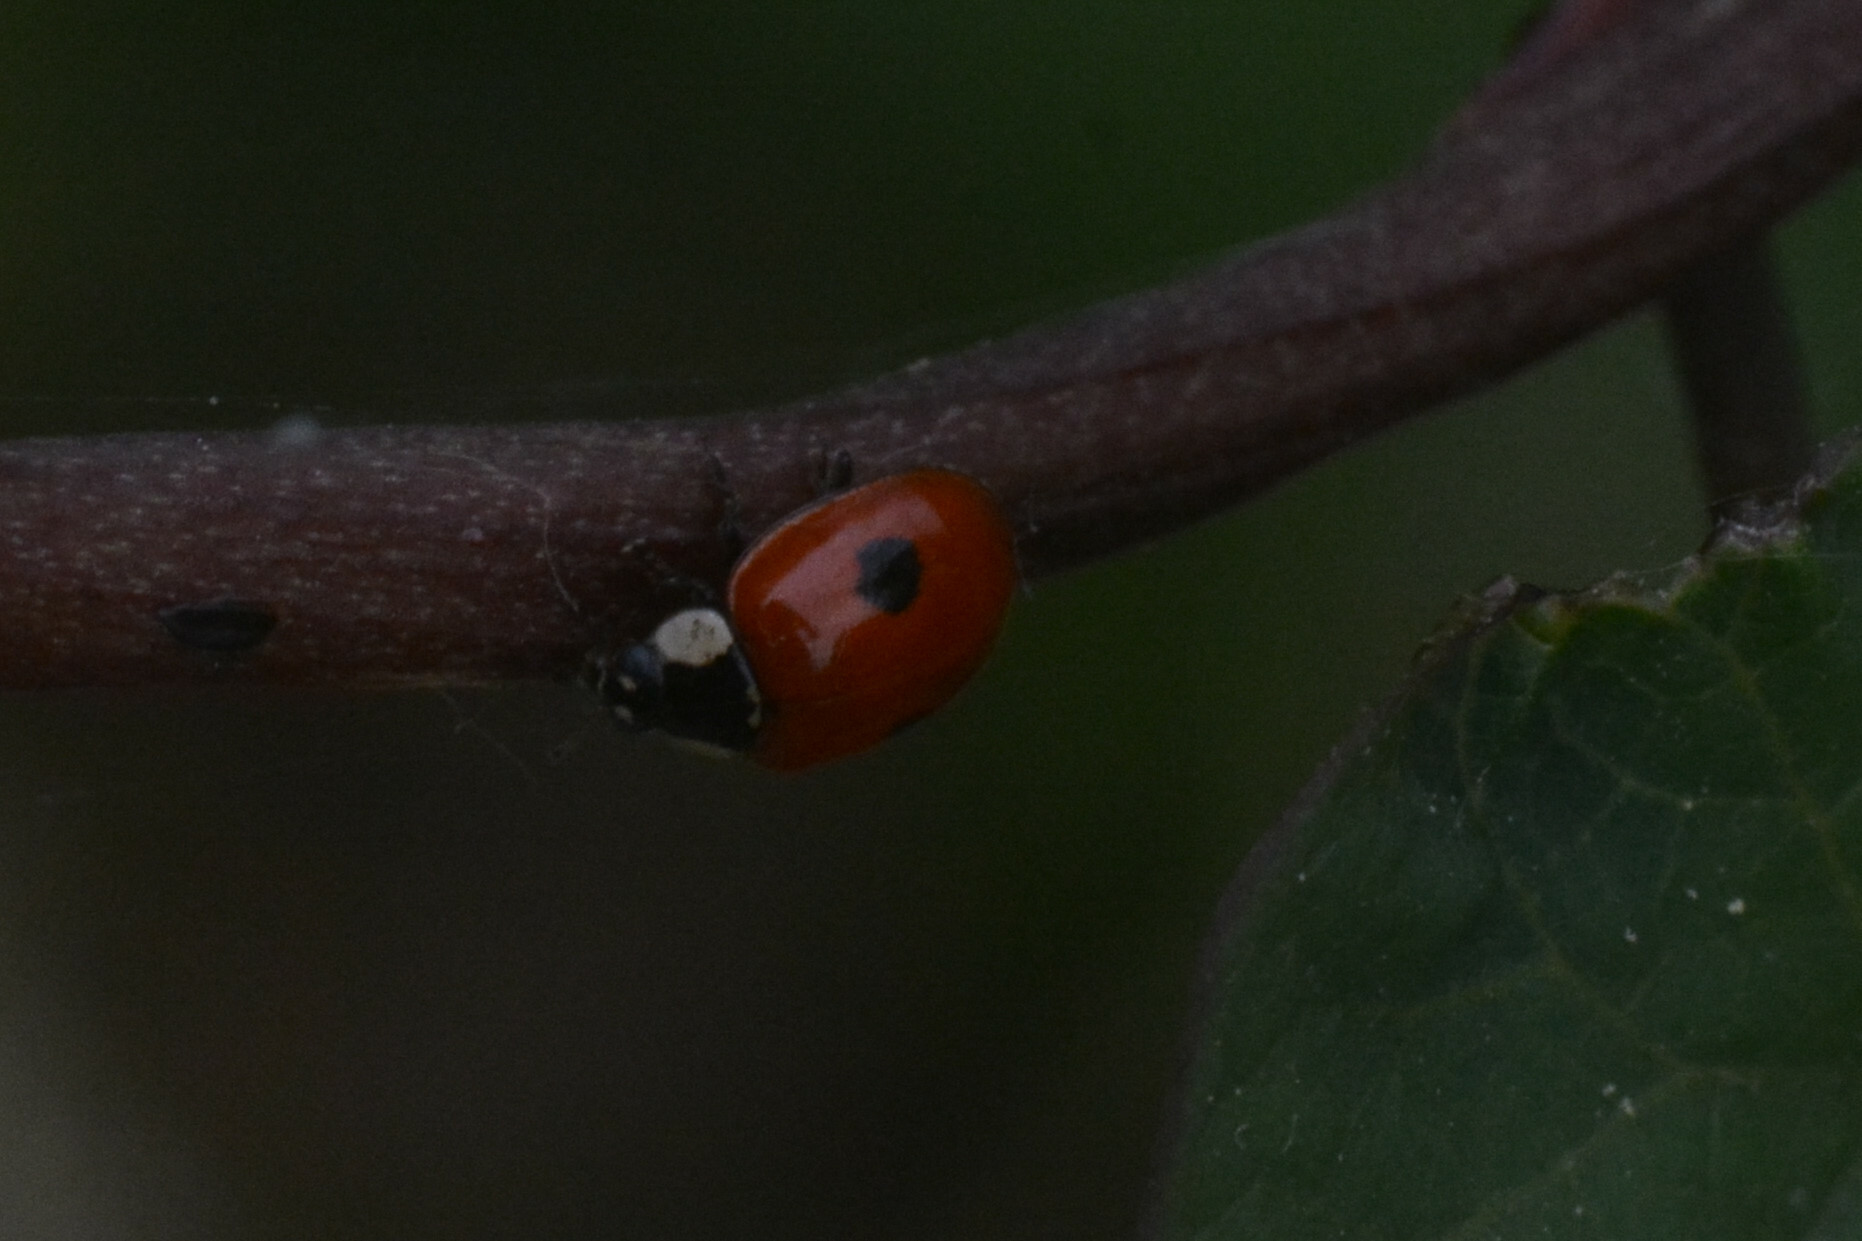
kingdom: Animalia
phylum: Arthropoda
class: Insecta
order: Coleoptera
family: Coccinellidae
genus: Adalia
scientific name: Adalia bipunctata
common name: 2-spot ladybird
